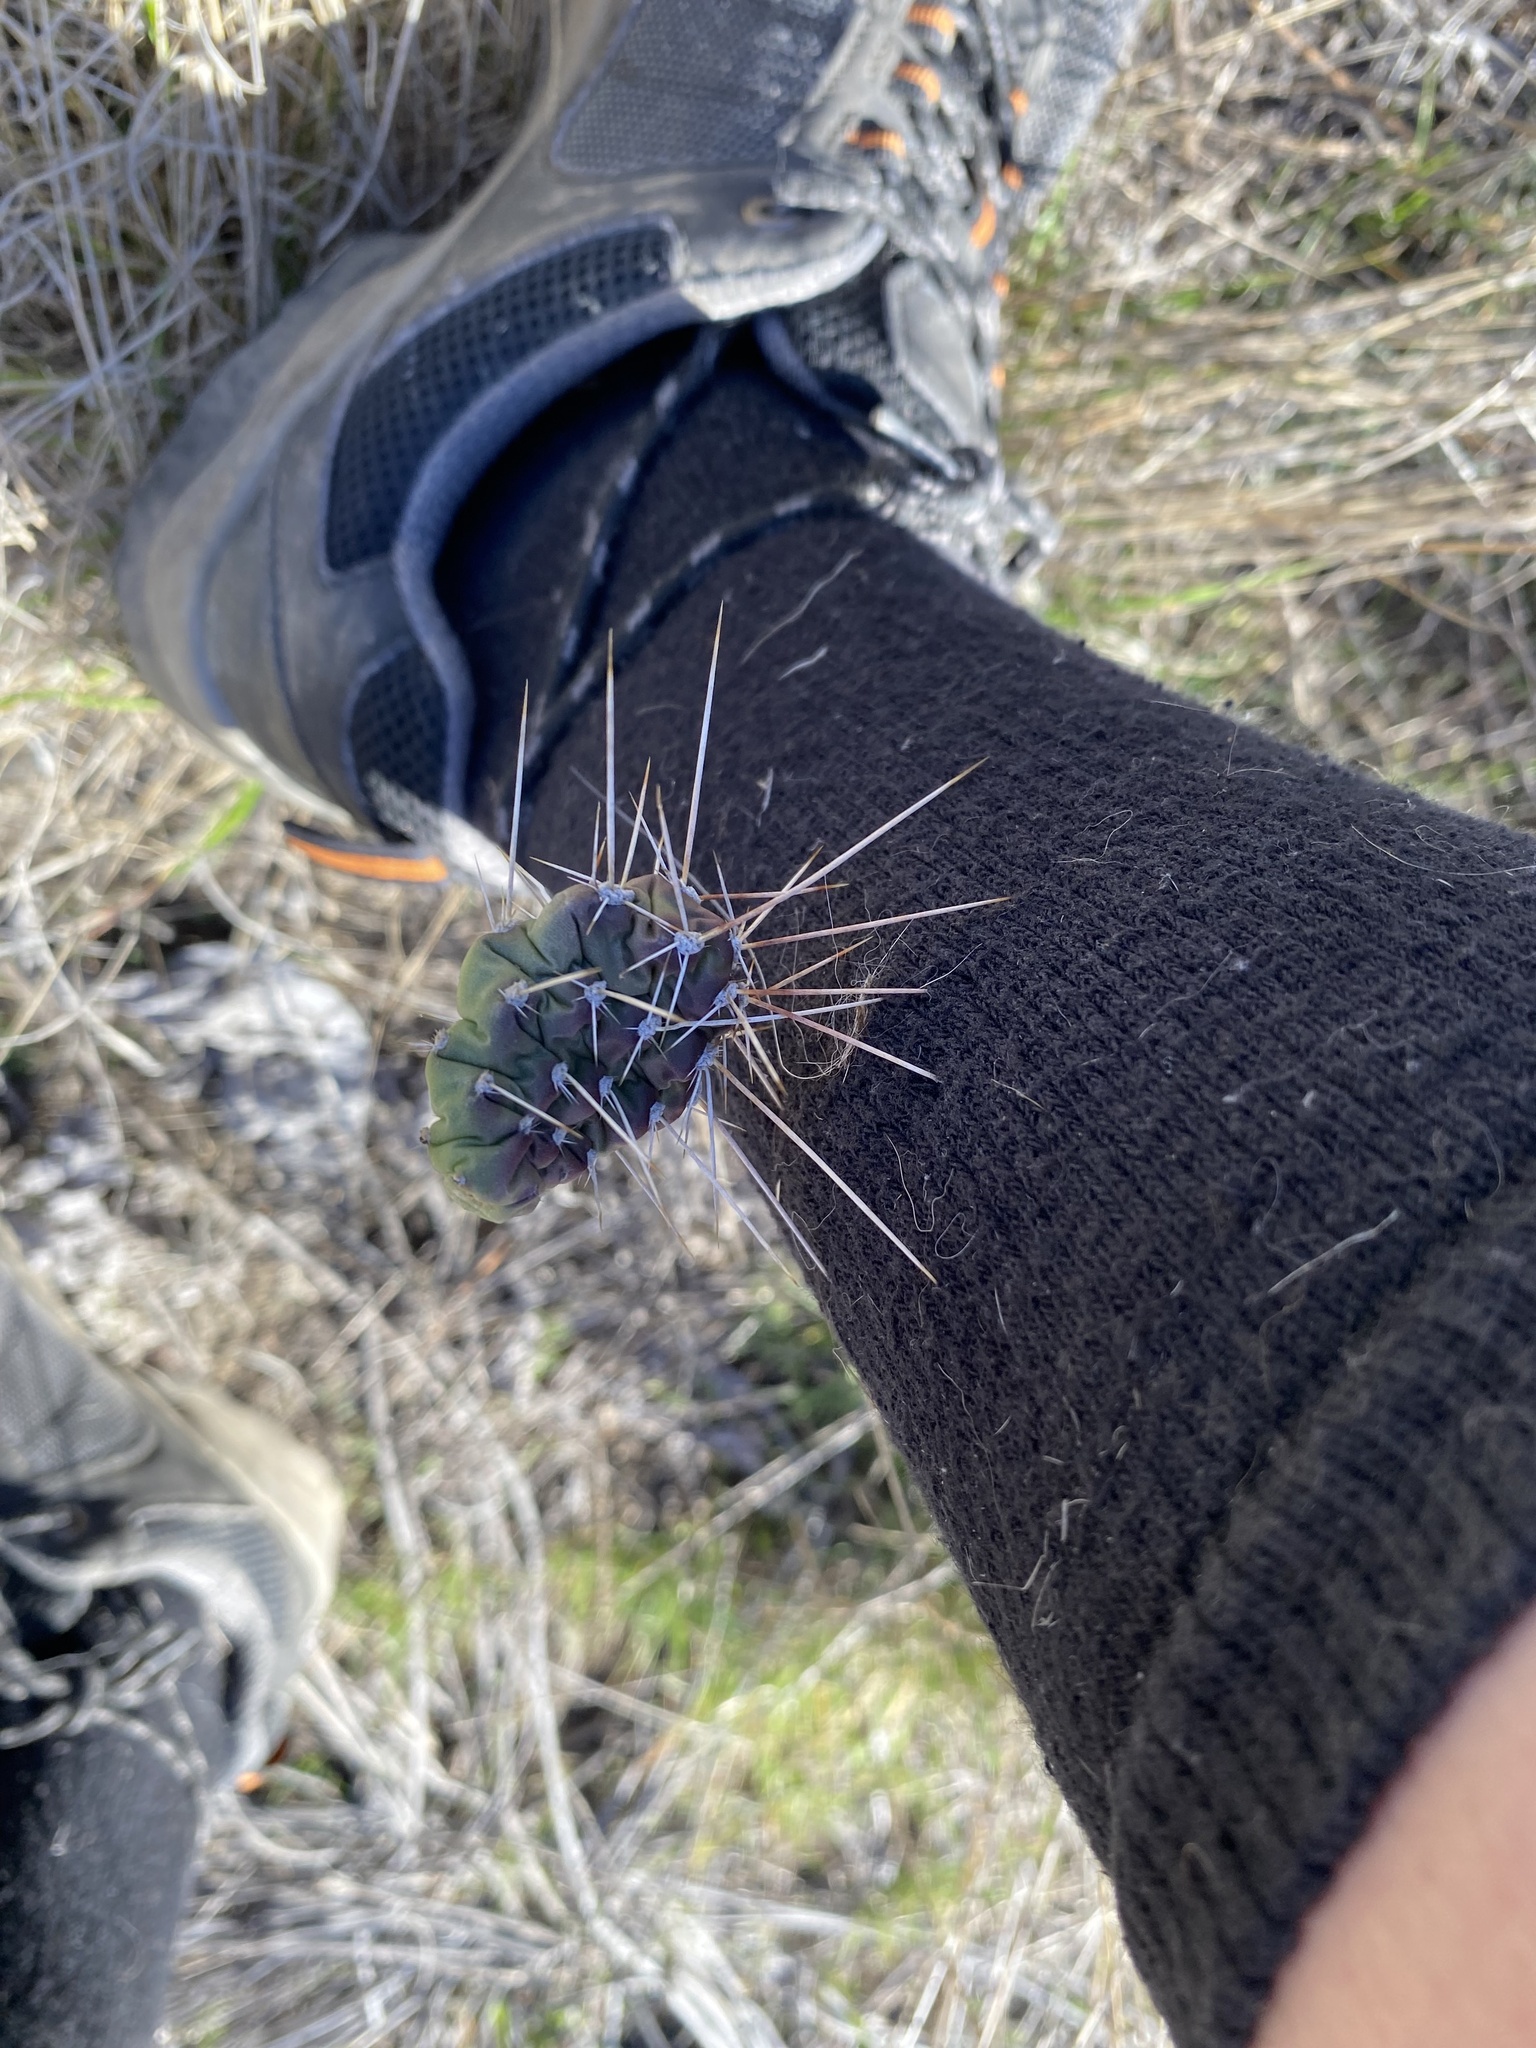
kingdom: Plantae
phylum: Tracheophyta
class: Magnoliopsida
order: Caryophyllales
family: Cactaceae
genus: Opuntia
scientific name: Opuntia fragilis
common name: Brittle cactus
